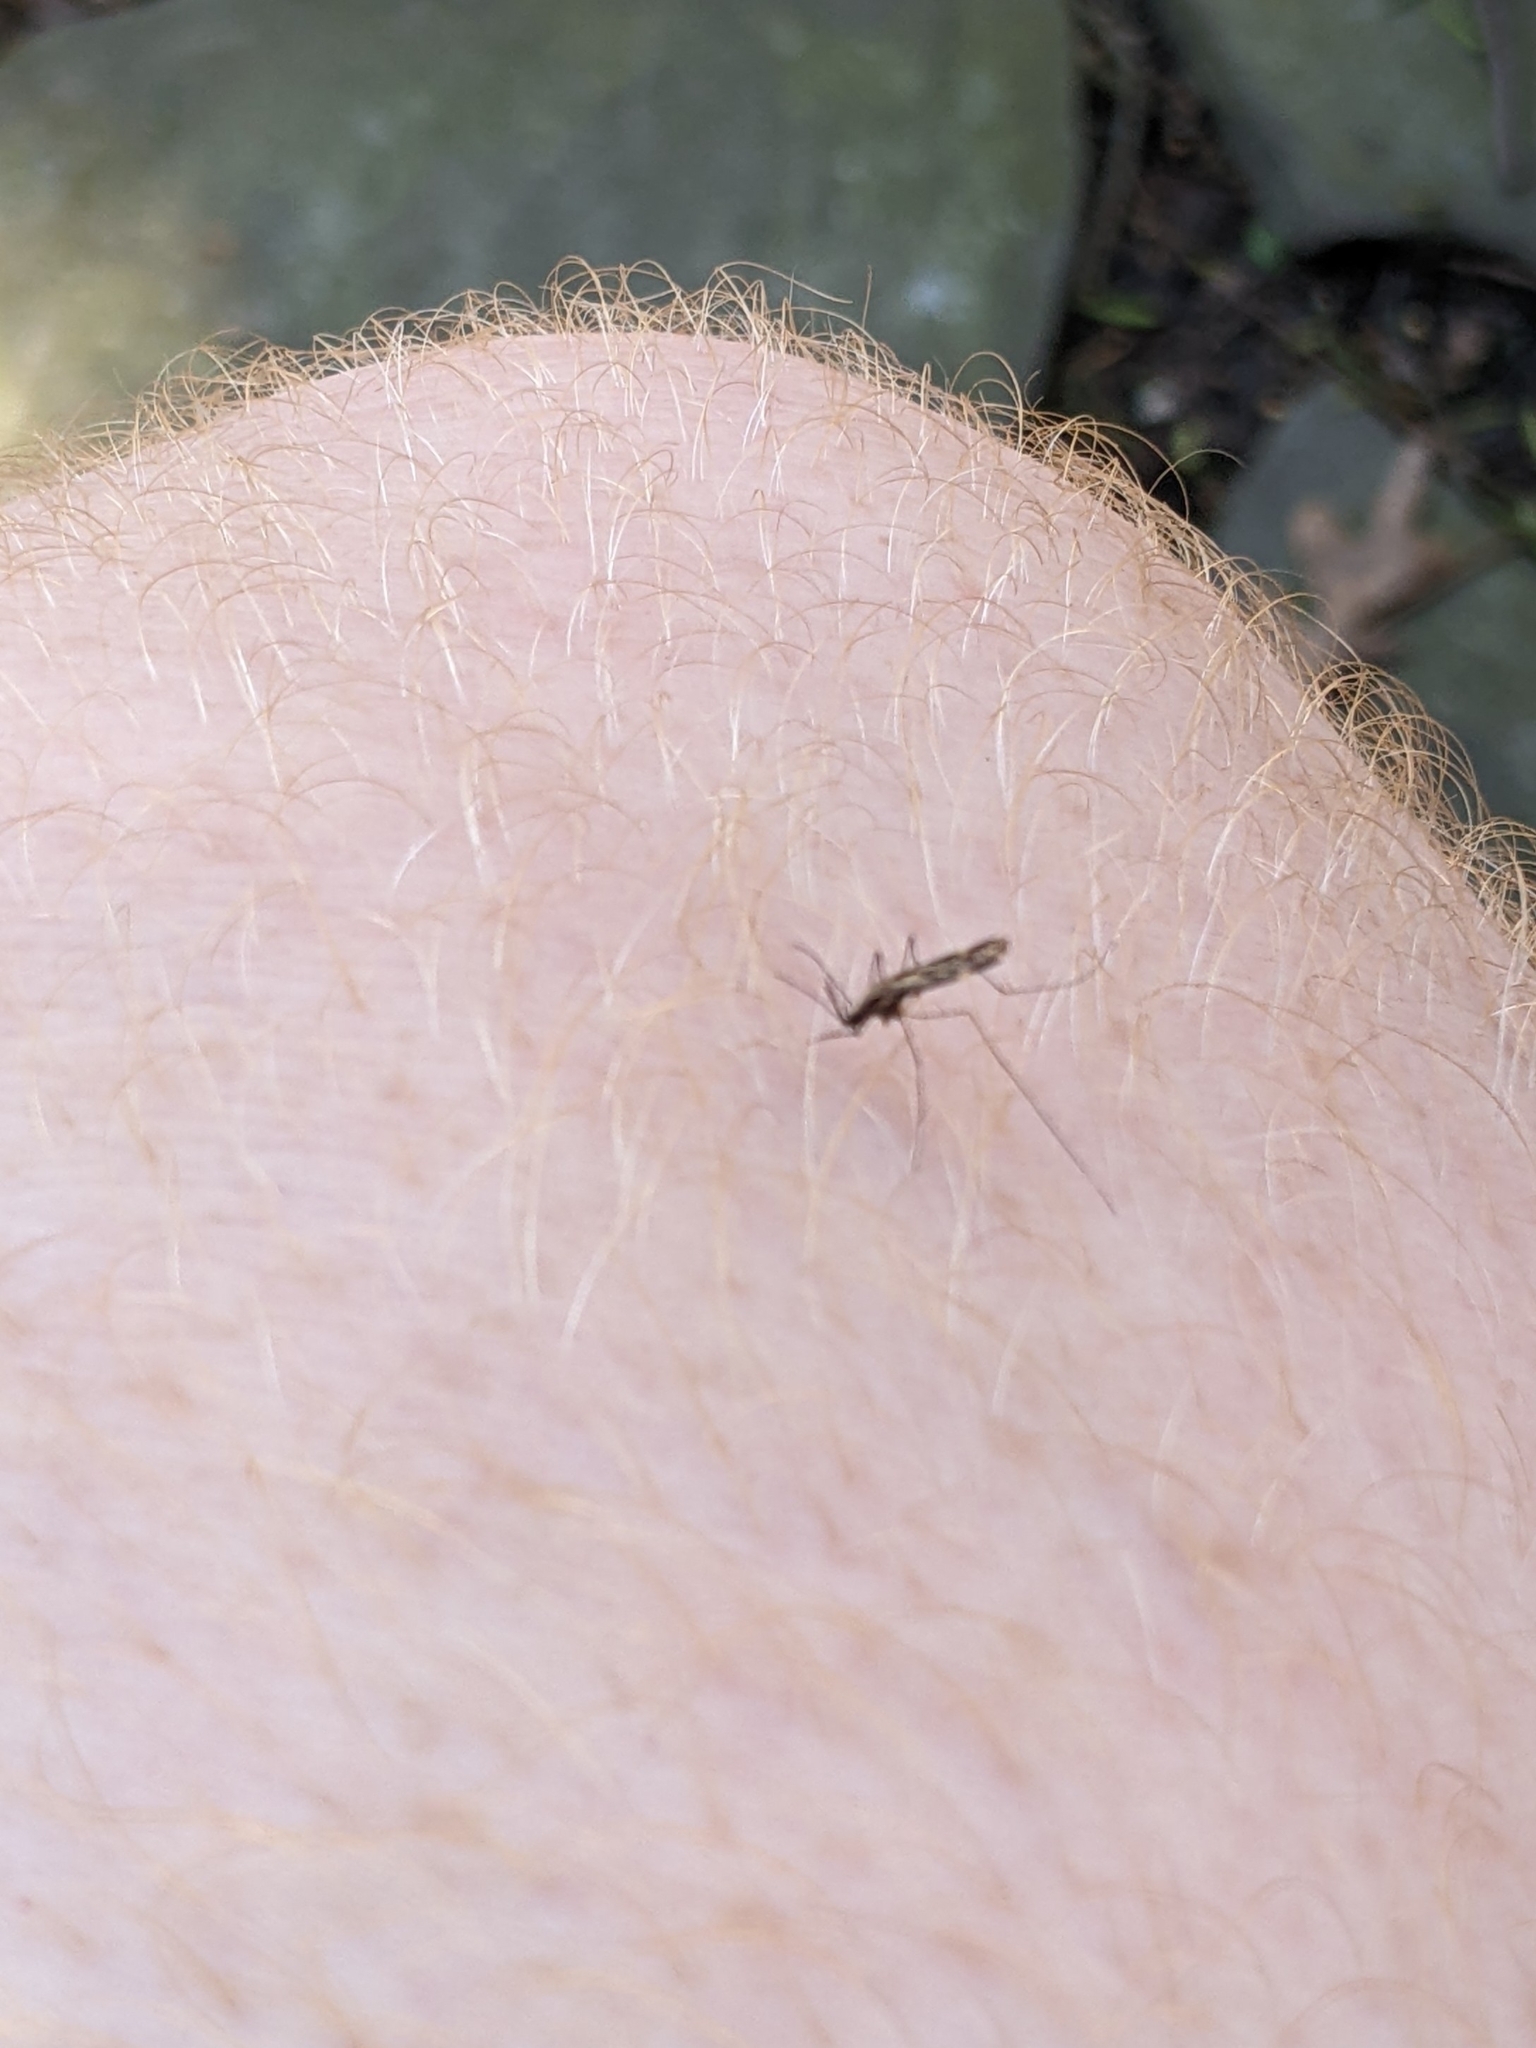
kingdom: Animalia
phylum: Arthropoda
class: Insecta
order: Diptera
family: Culicidae
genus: Anopheles
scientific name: Anopheles punctipennis
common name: Woodland malaria mosquito
